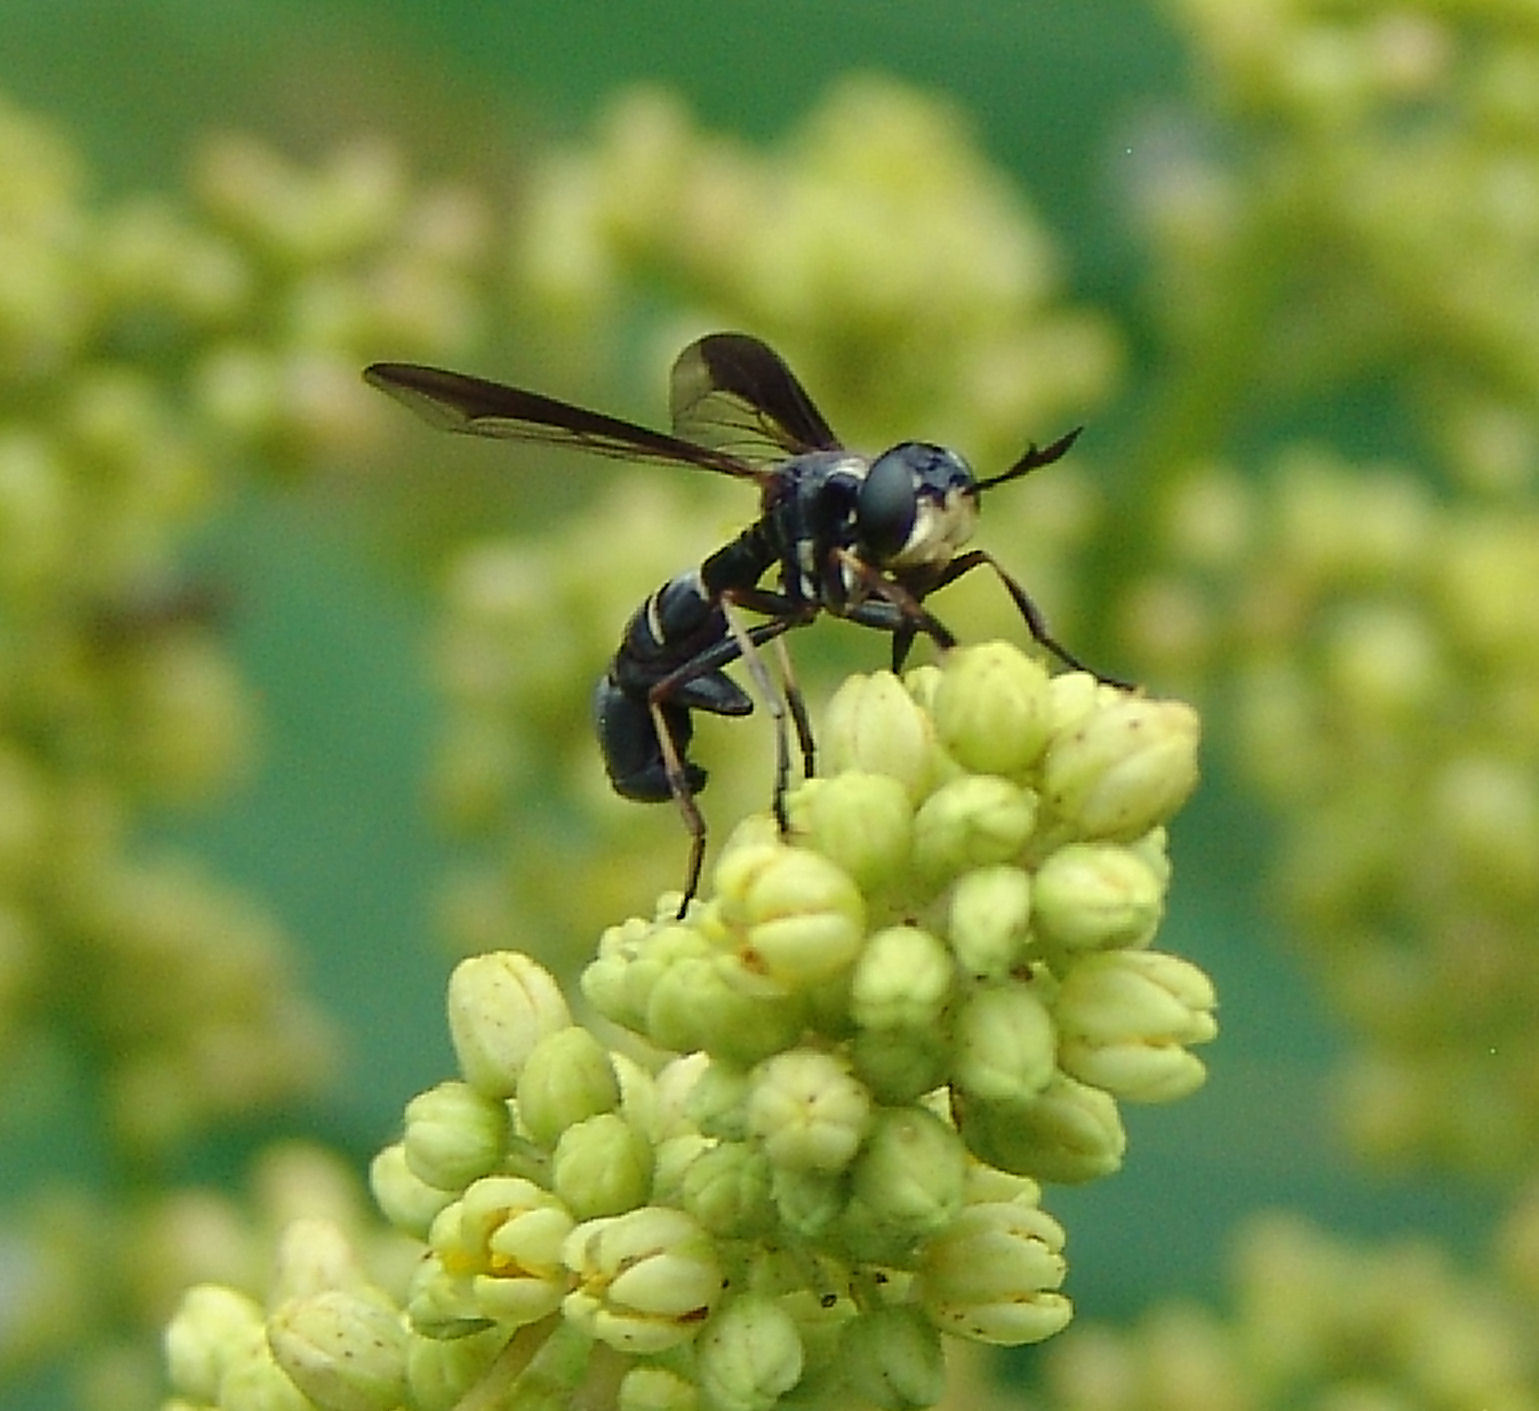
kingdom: Animalia
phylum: Arthropoda
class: Insecta
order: Diptera
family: Conopidae
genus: Physoconops
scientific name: Physoconops bulbirostris
